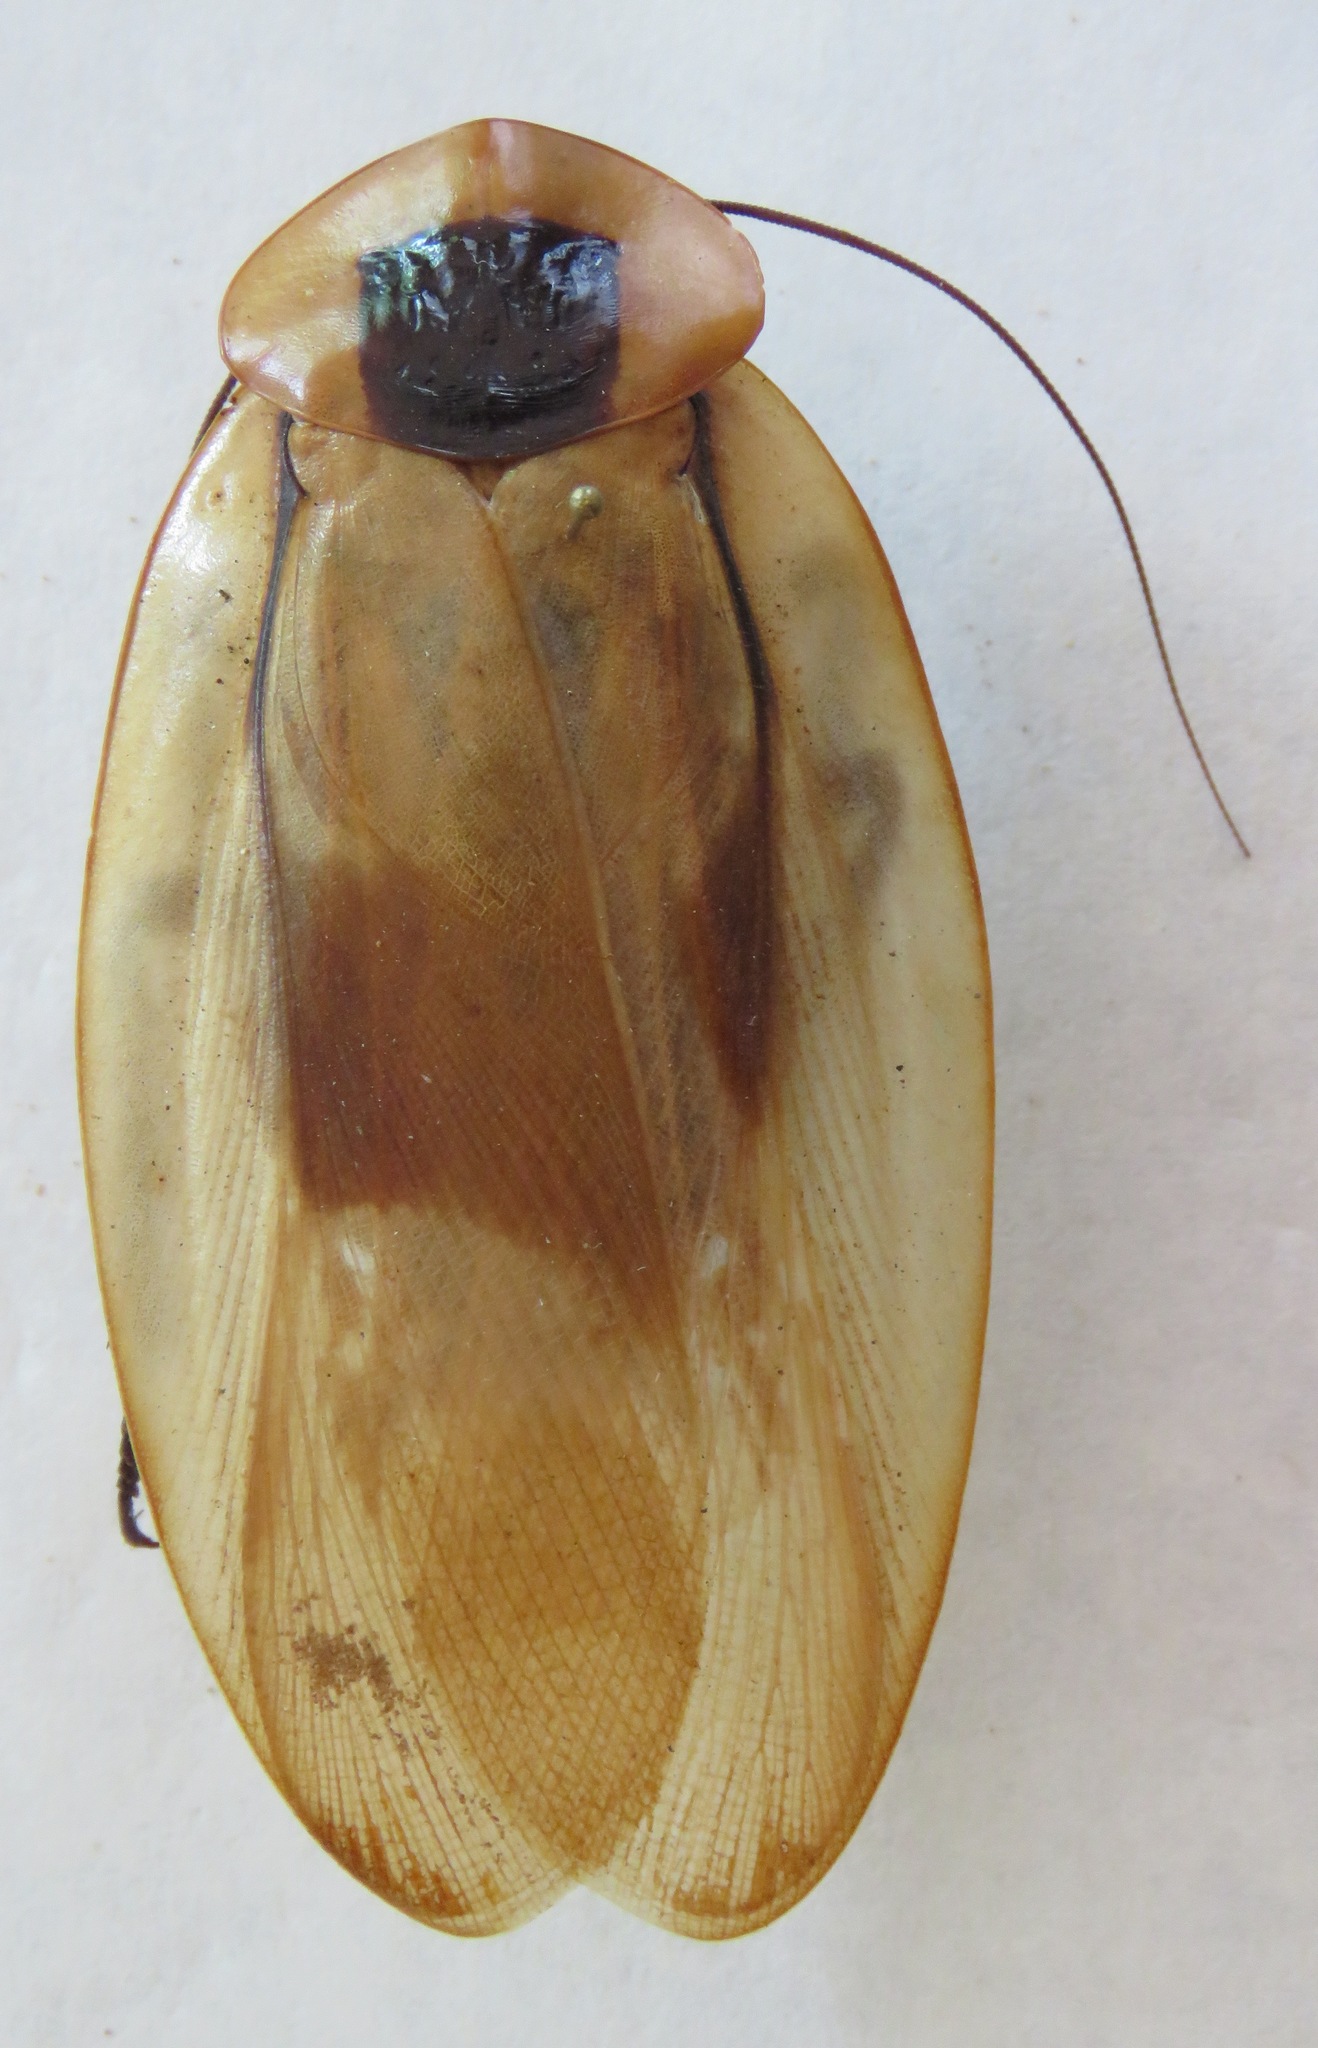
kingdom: Animalia
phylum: Arthropoda
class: Insecta
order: Blattodea
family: Blaberidae
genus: Blaberus
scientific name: Blaberus giganteus
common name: Giant cave cockroach
